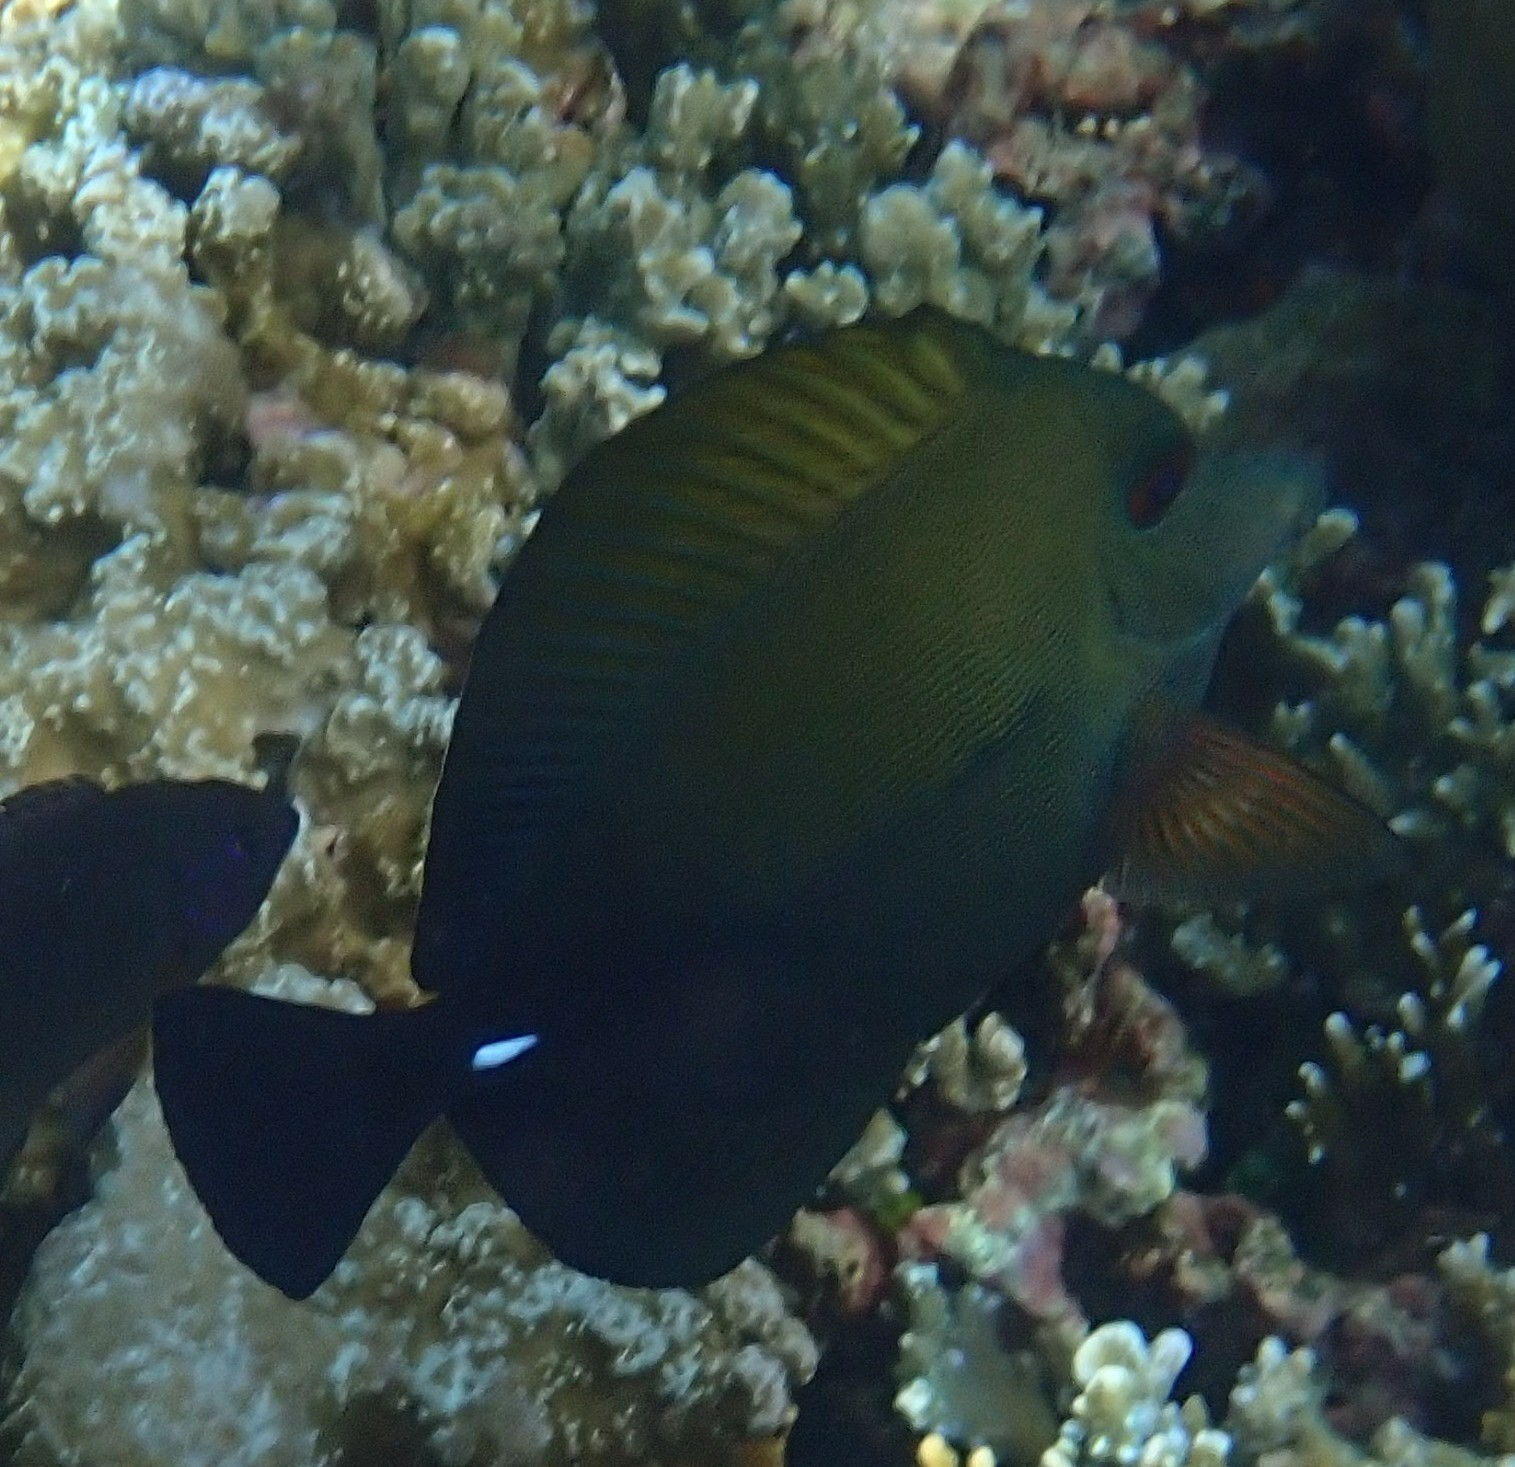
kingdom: Animalia
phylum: Chordata
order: Perciformes
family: Acanthuridae
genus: Zebrasoma
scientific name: Zebrasoma scopas
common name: Twotone tang
